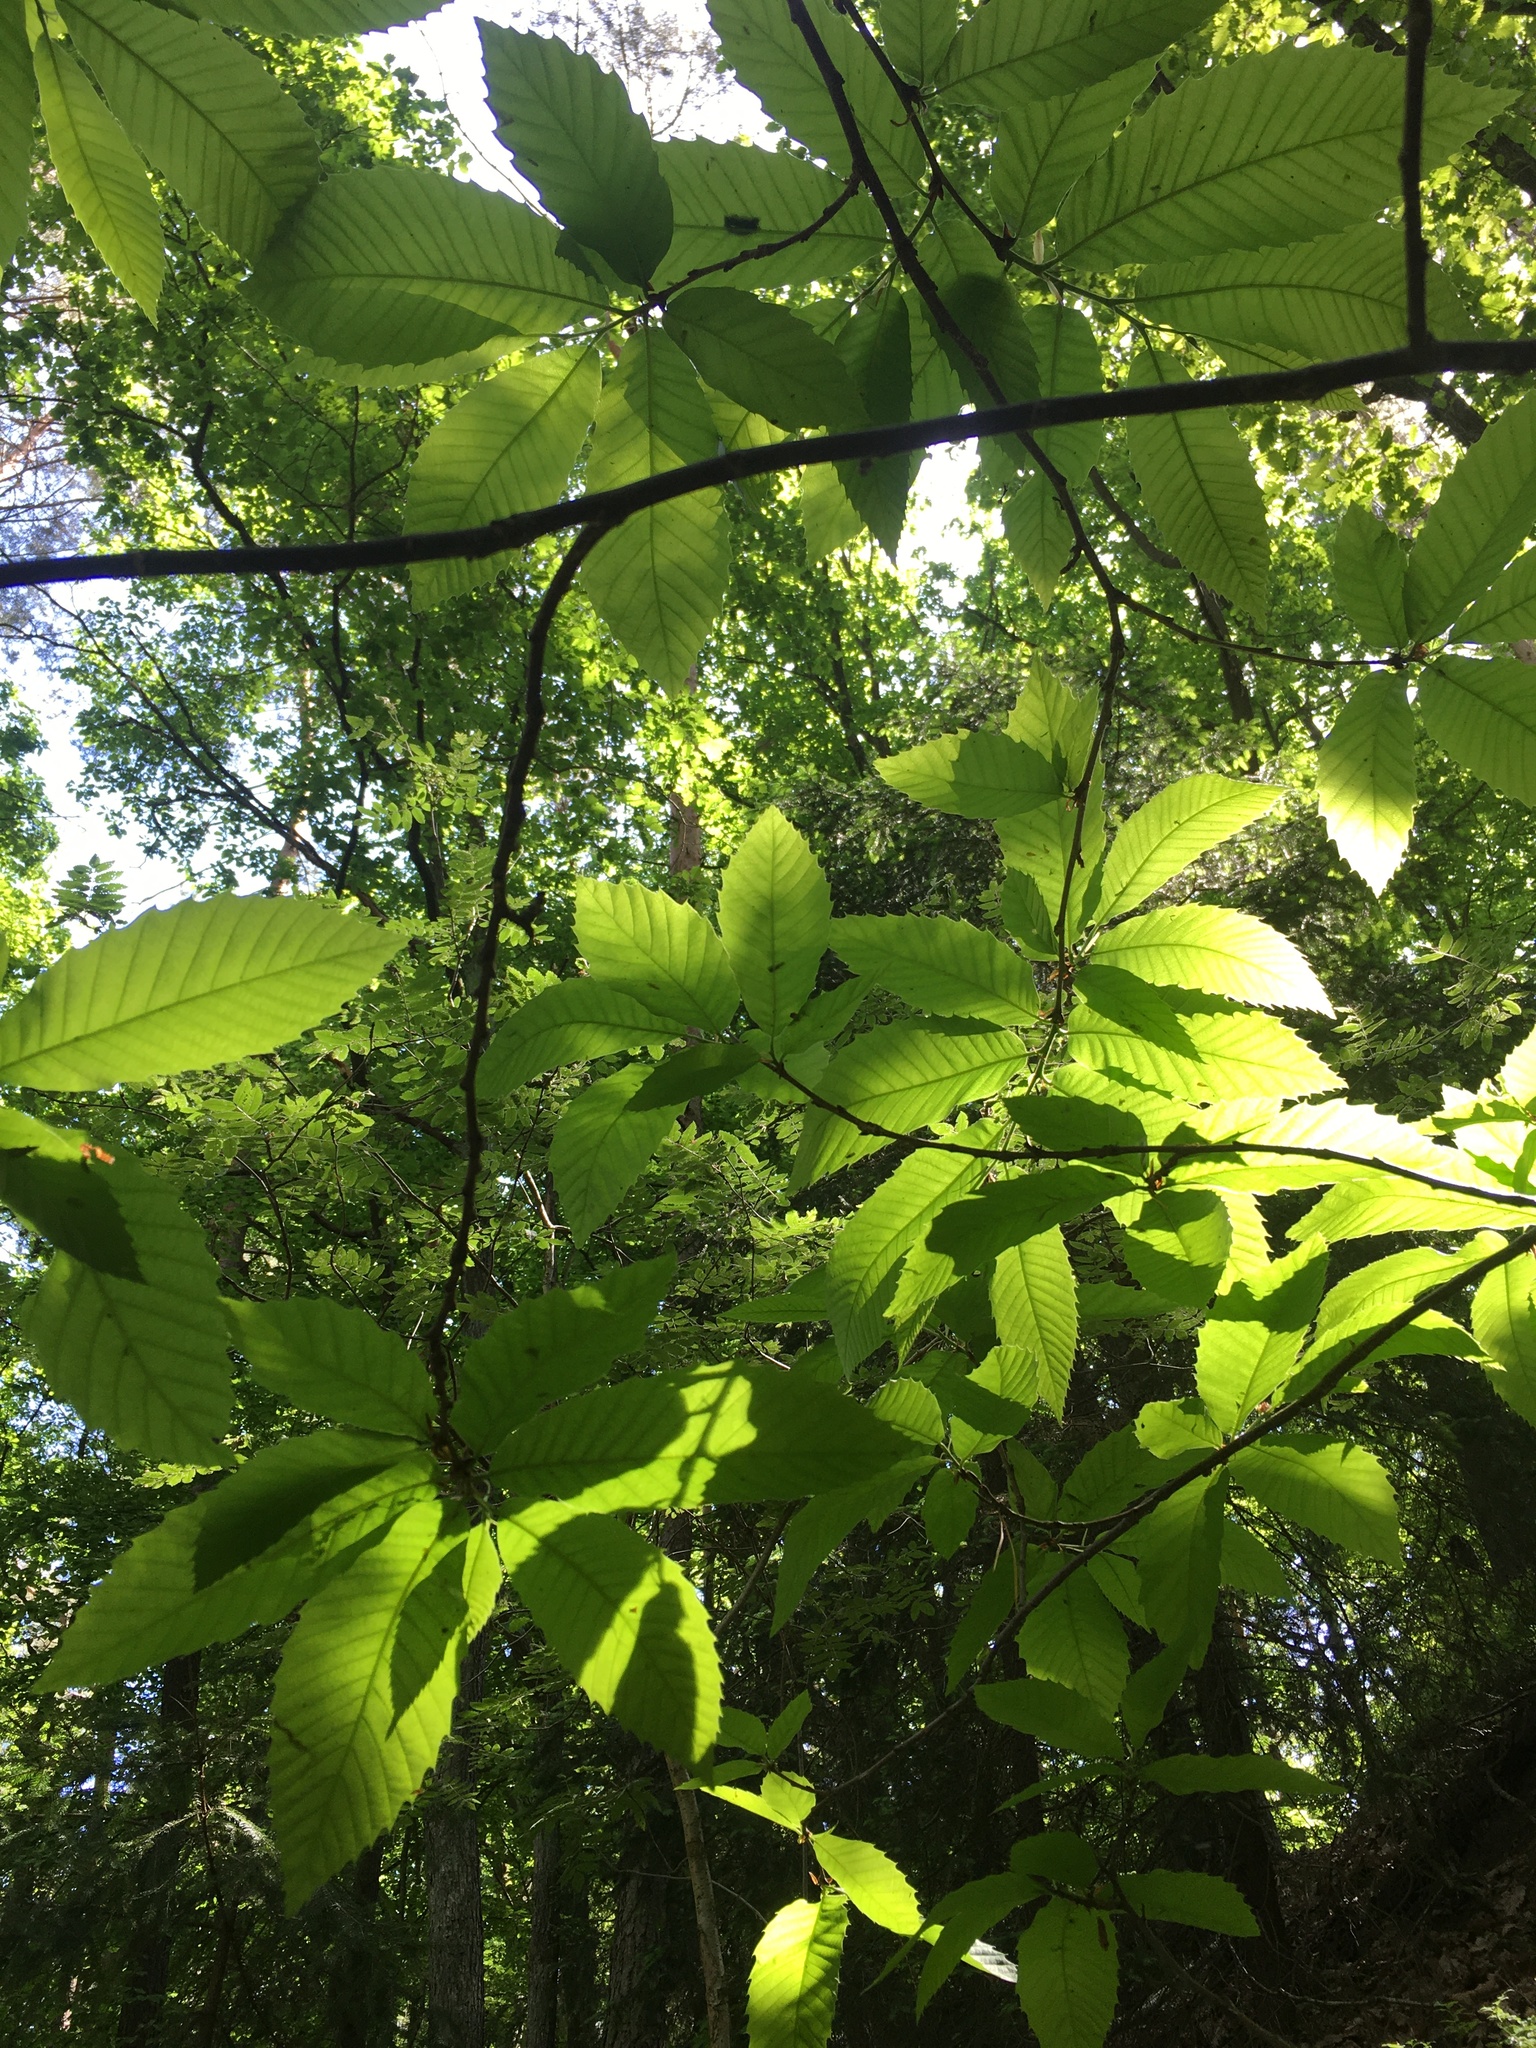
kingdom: Plantae
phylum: Tracheophyta
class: Magnoliopsida
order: Fagales
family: Fagaceae
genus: Castanea
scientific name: Castanea sativa
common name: Sweet chestnut
